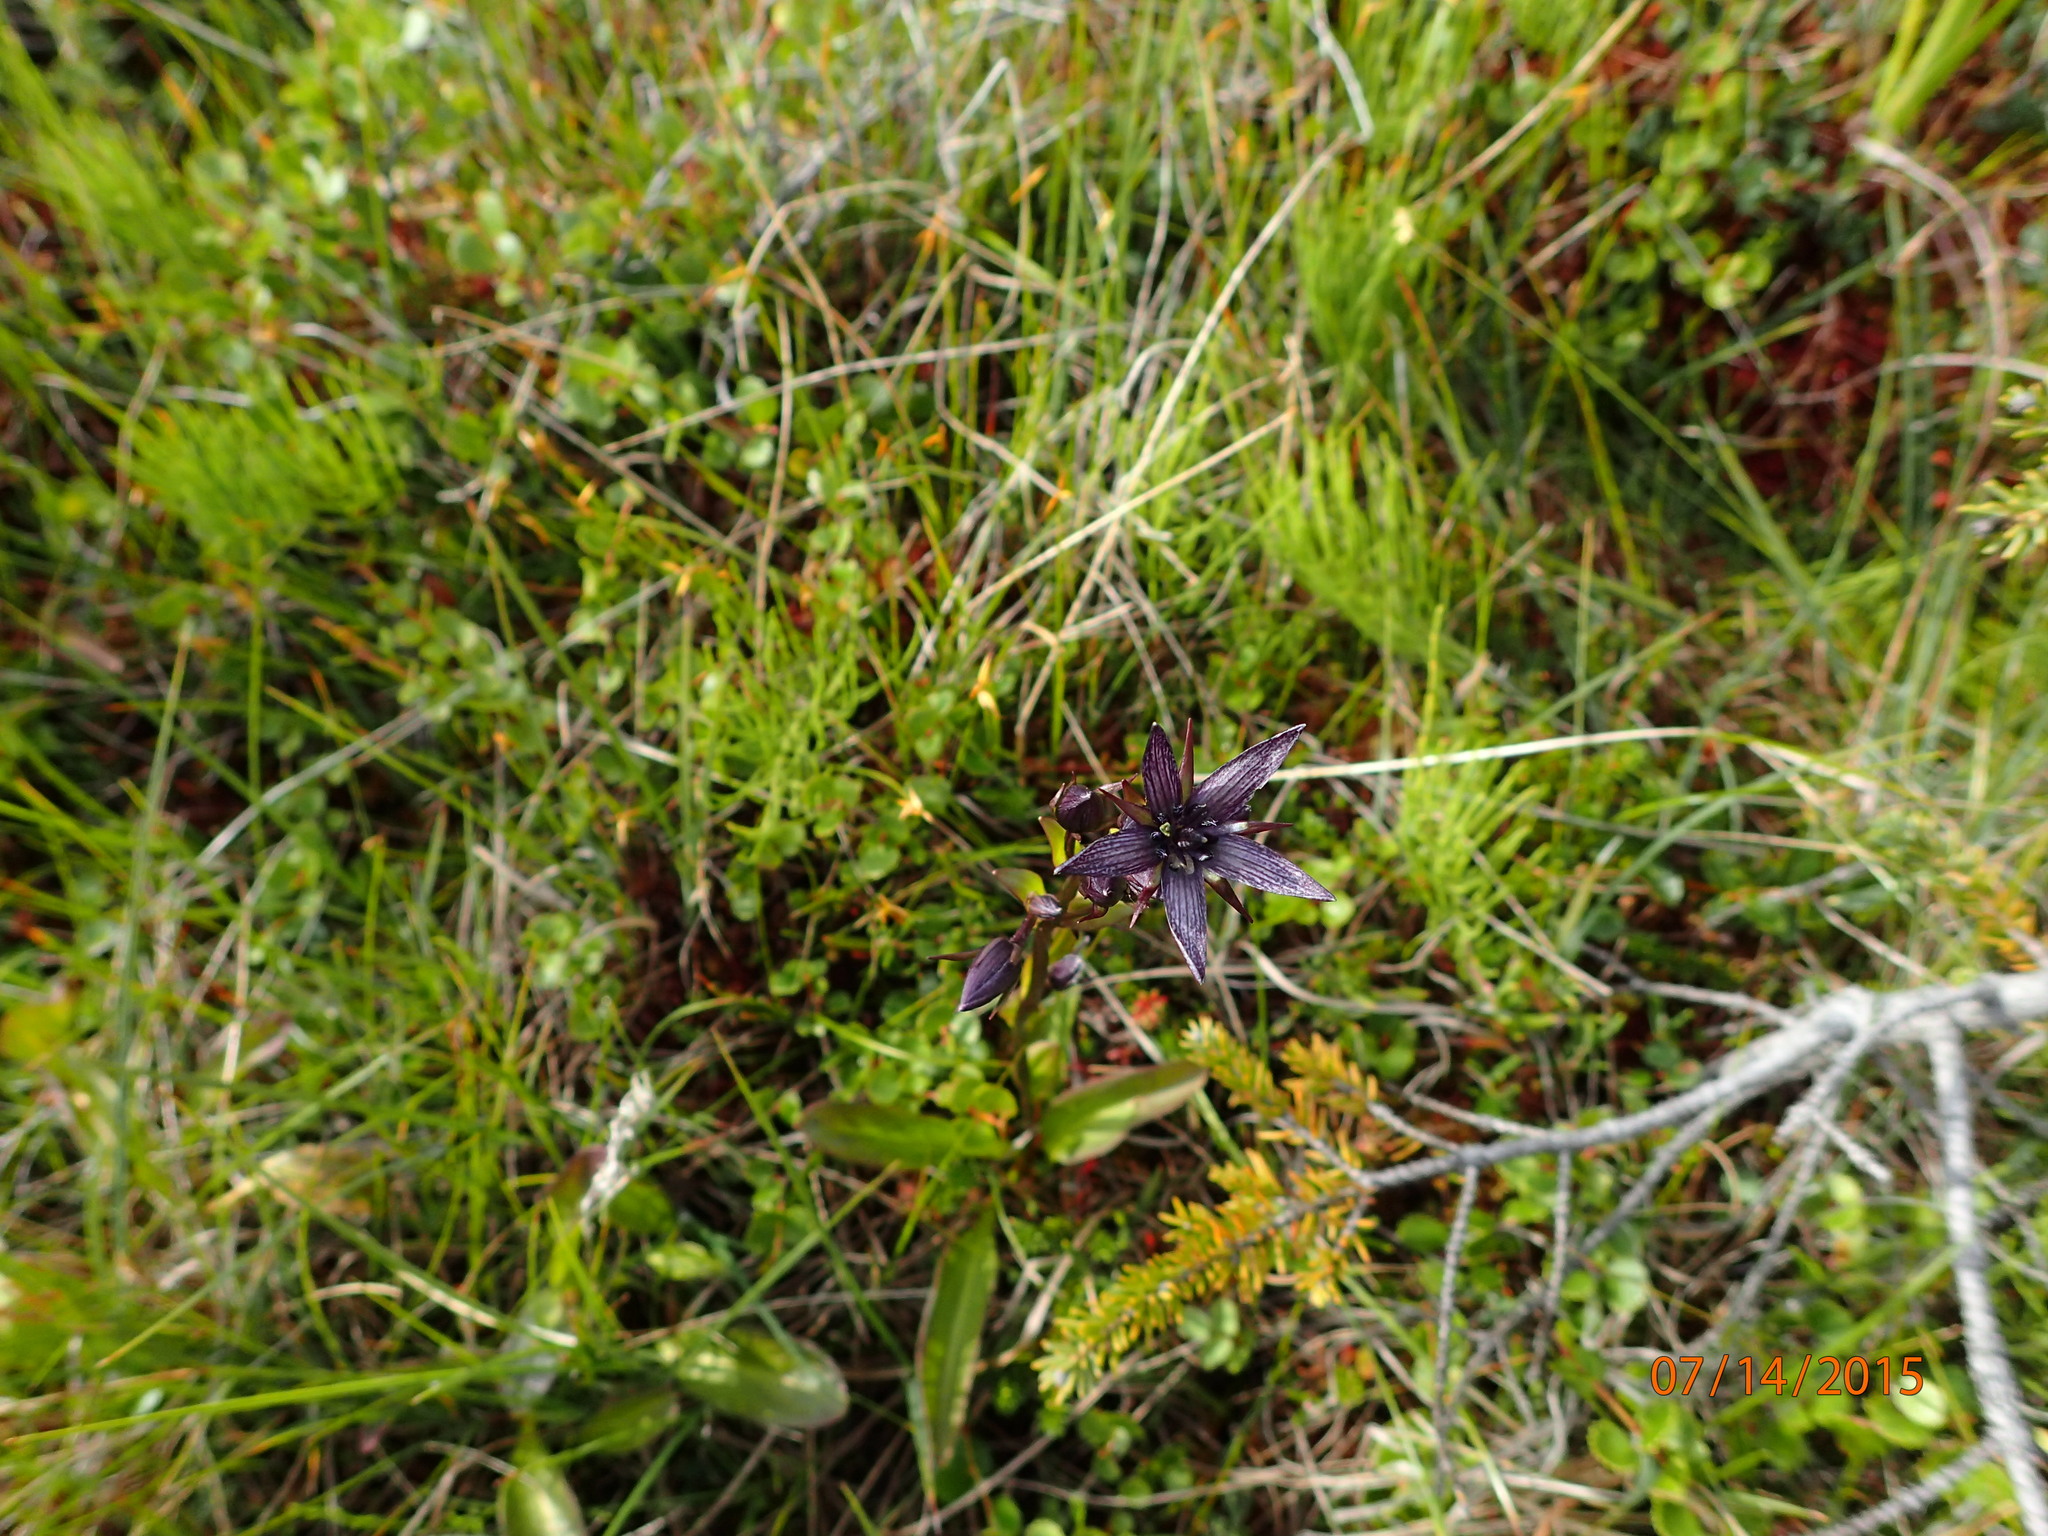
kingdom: Plantae
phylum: Tracheophyta
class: Magnoliopsida
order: Gentianales
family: Gentianaceae
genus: Swertia
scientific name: Swertia perennis
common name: Alpine bog swertia
